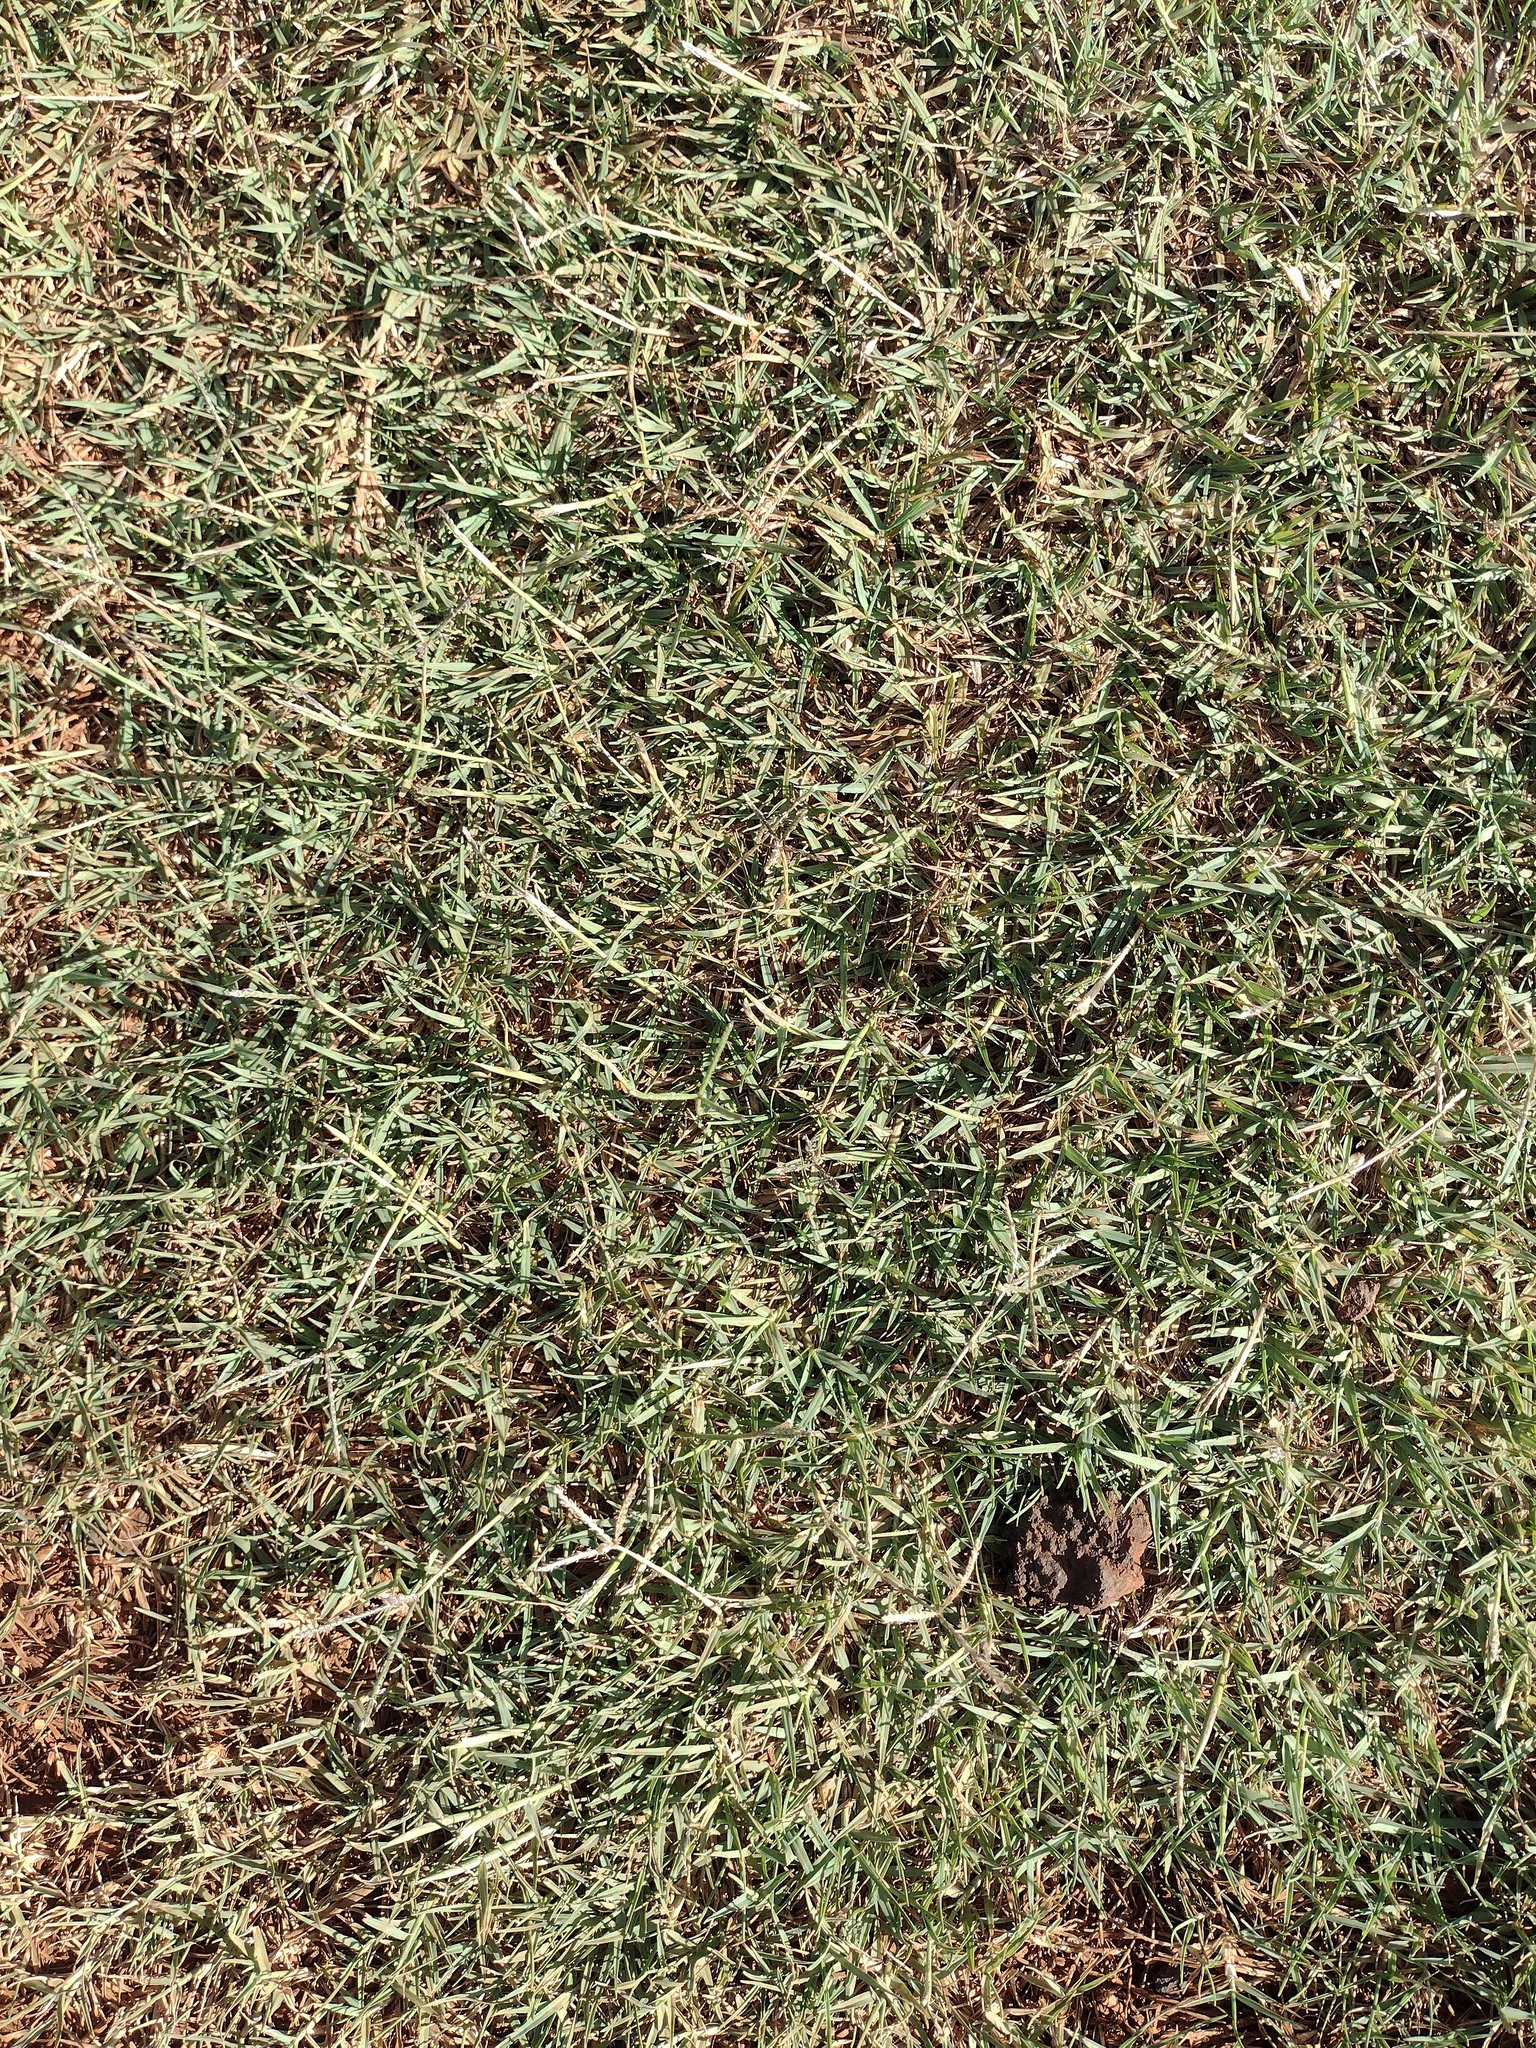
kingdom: Plantae
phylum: Tracheophyta
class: Liliopsida
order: Poales
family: Poaceae
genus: Cynodon
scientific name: Cynodon dactylon
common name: Bermuda grass
